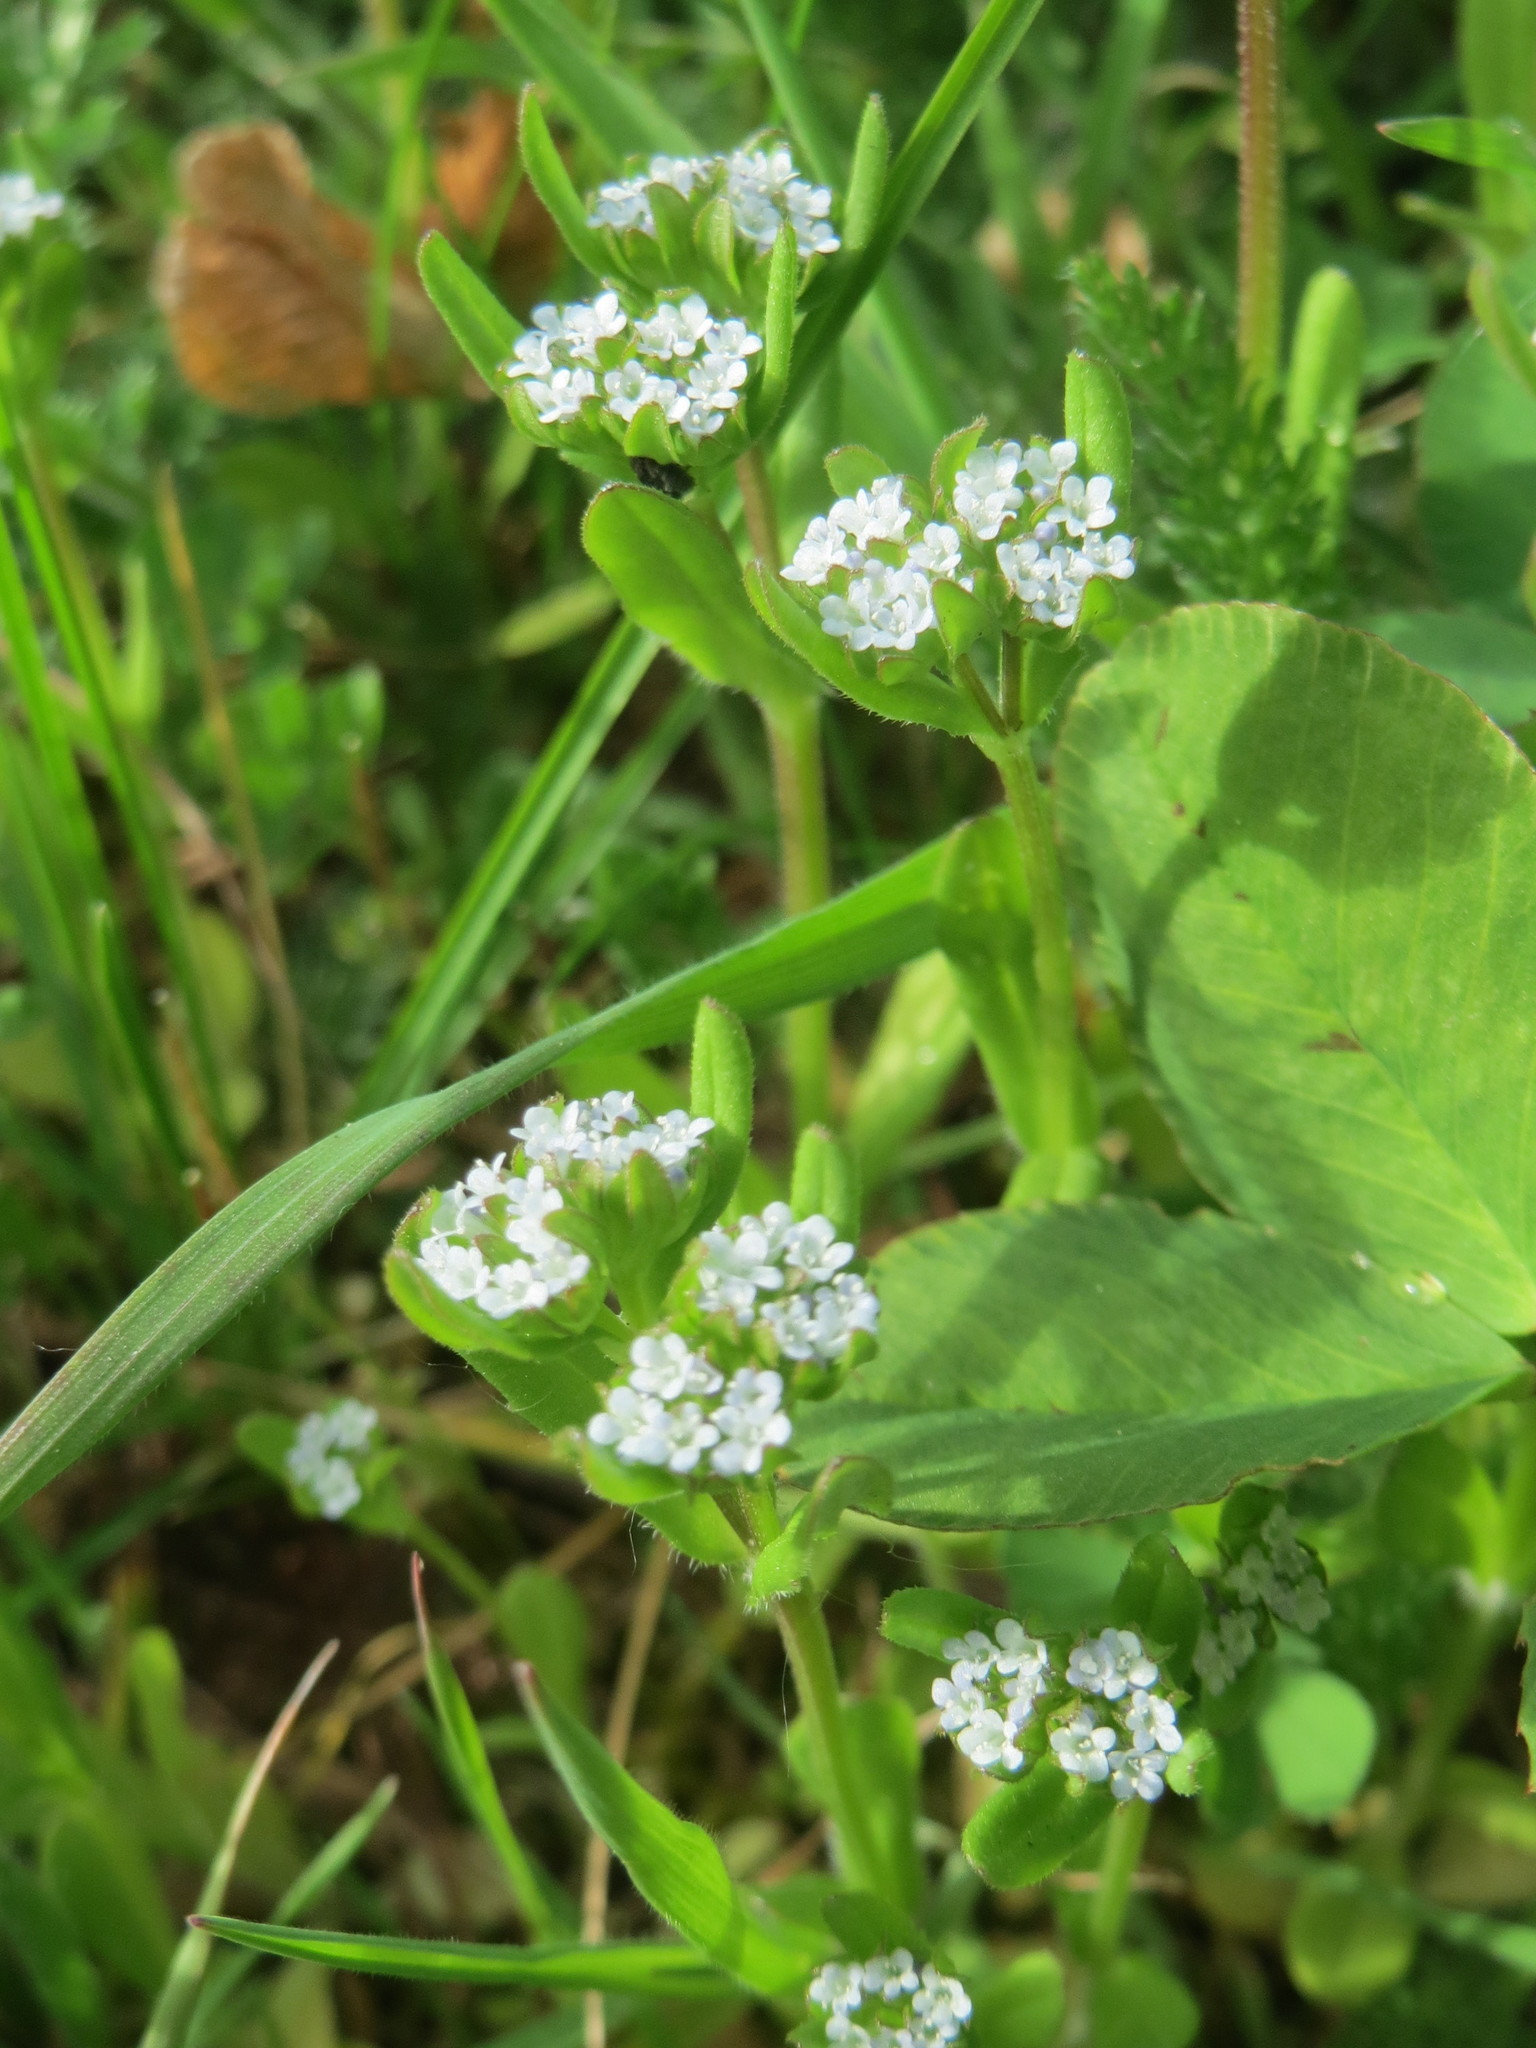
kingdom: Plantae
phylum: Tracheophyta
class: Magnoliopsida
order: Dipsacales
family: Caprifoliaceae
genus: Valerianella
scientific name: Valerianella locusta
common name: Common cornsalad
